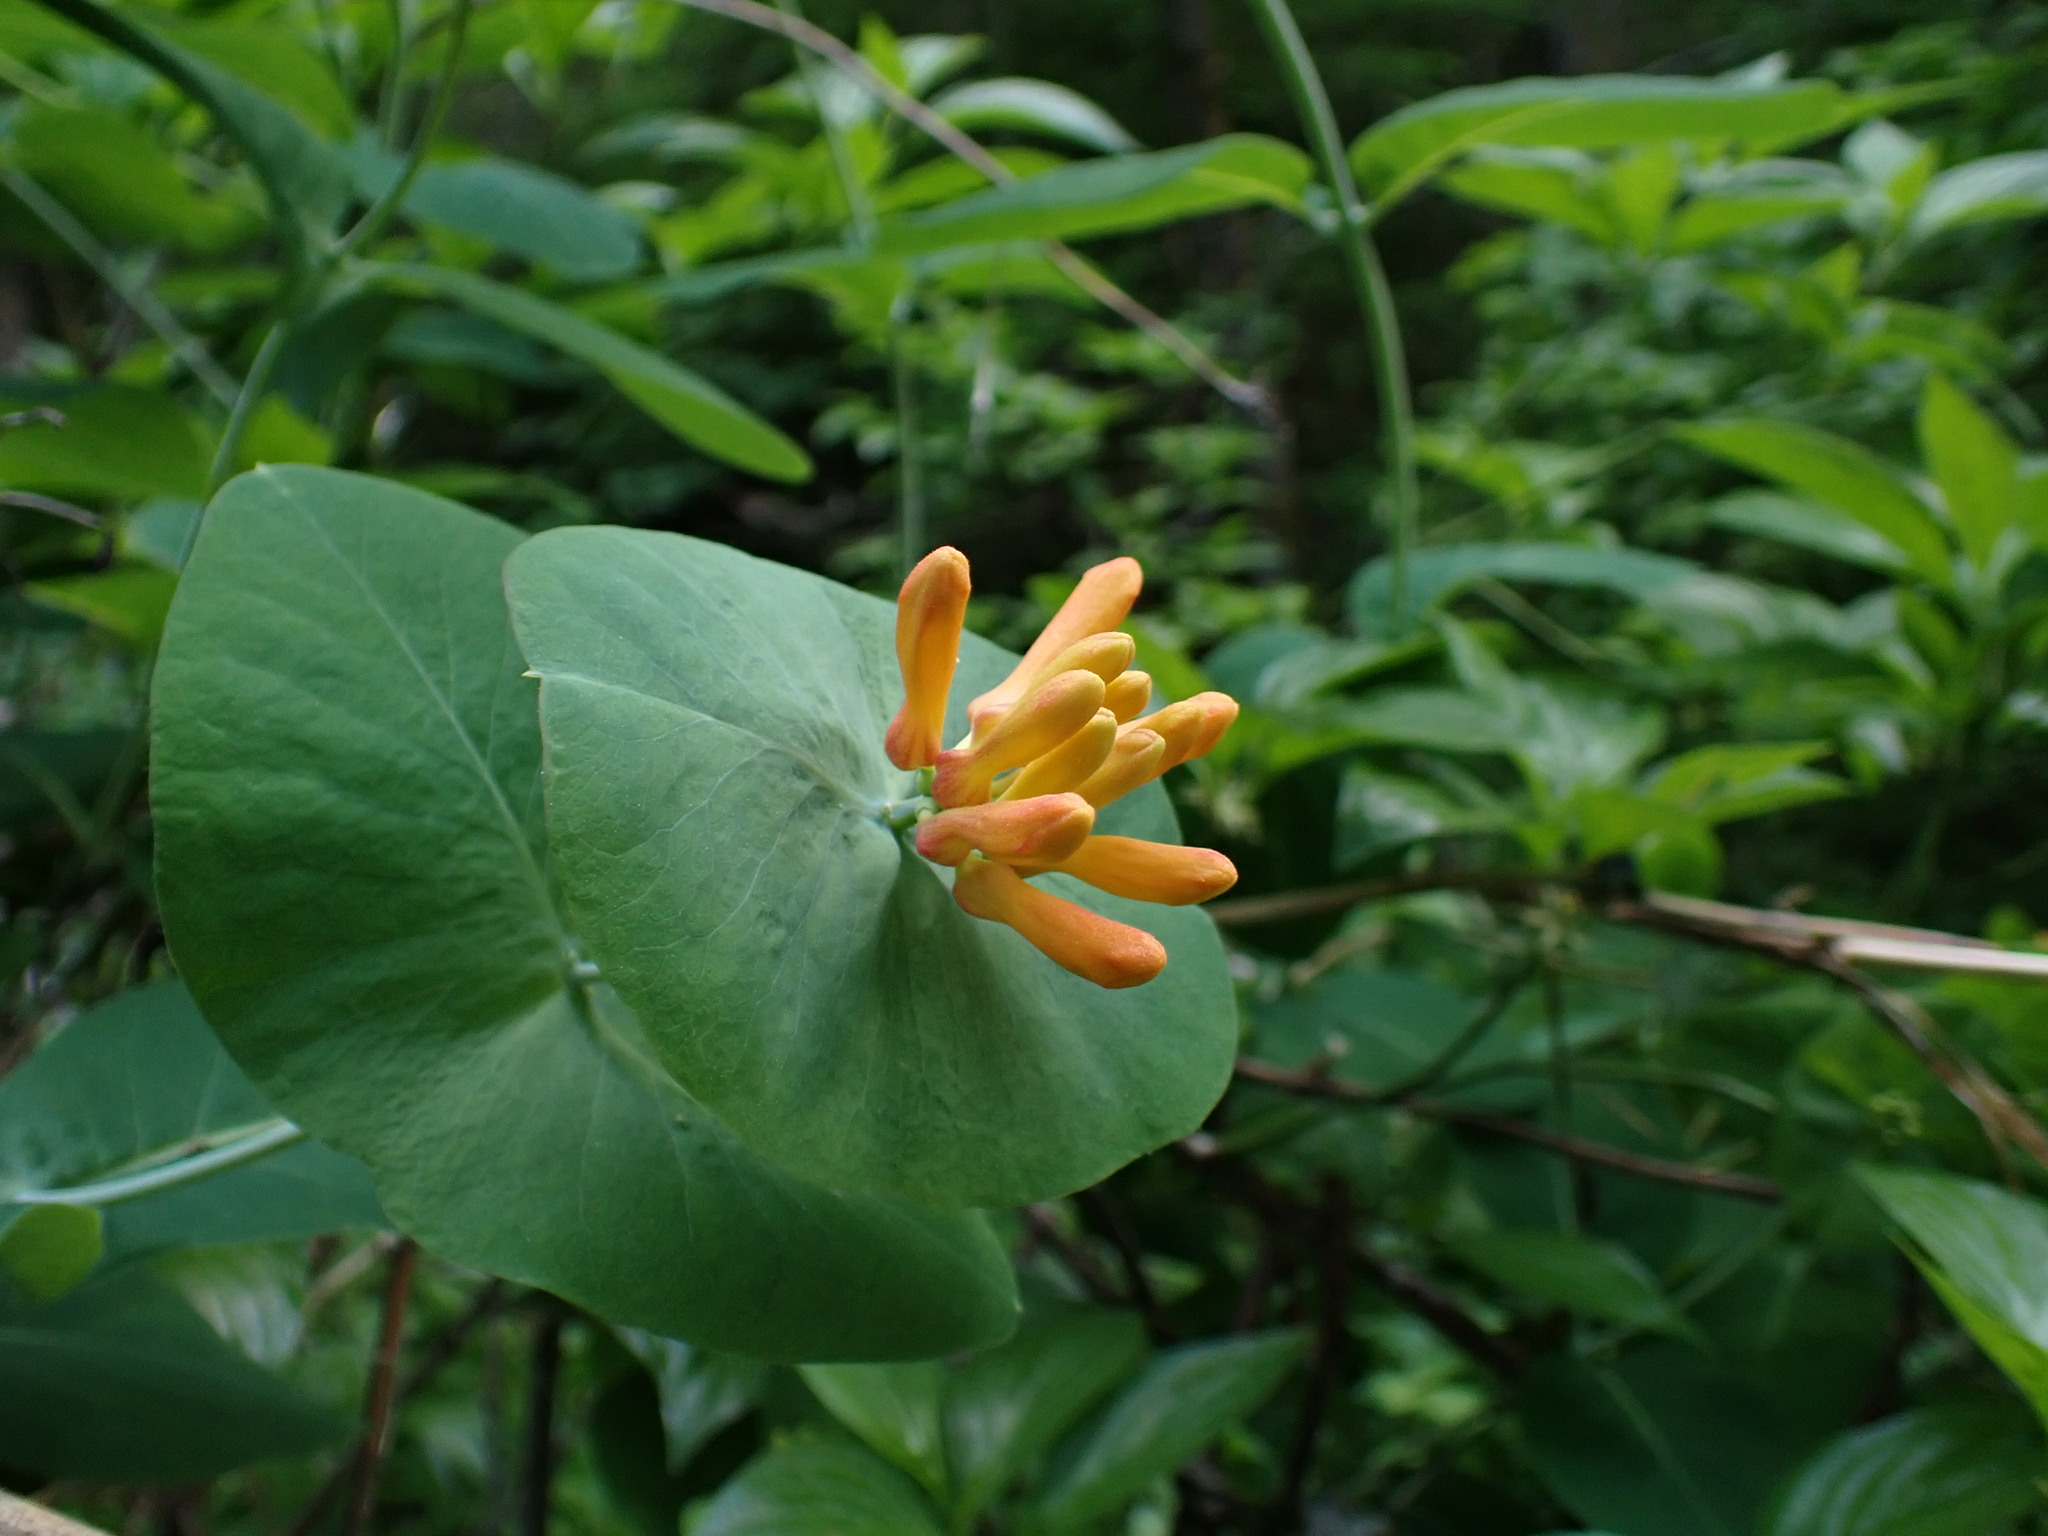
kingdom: Plantae
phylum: Tracheophyta
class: Magnoliopsida
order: Dipsacales
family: Caprifoliaceae
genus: Lonicera
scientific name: Lonicera ciliosa
